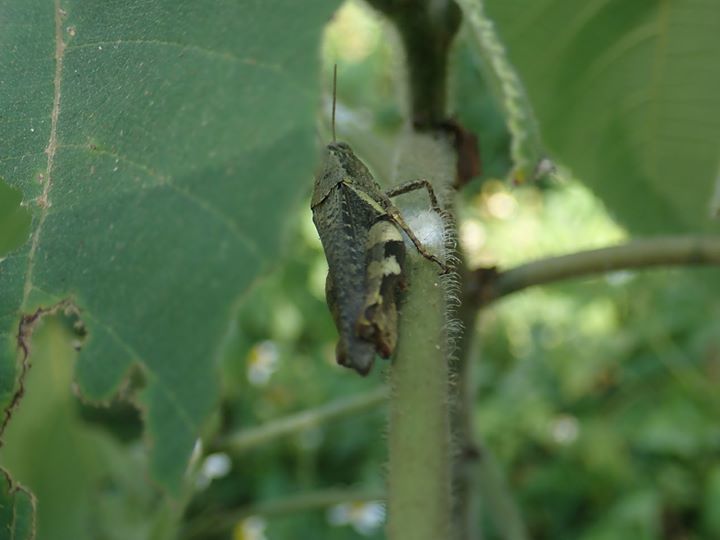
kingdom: Animalia
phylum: Arthropoda
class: Insecta
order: Orthoptera
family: Acrididae
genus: Xenocatantops
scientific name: Xenocatantops brachycerus
